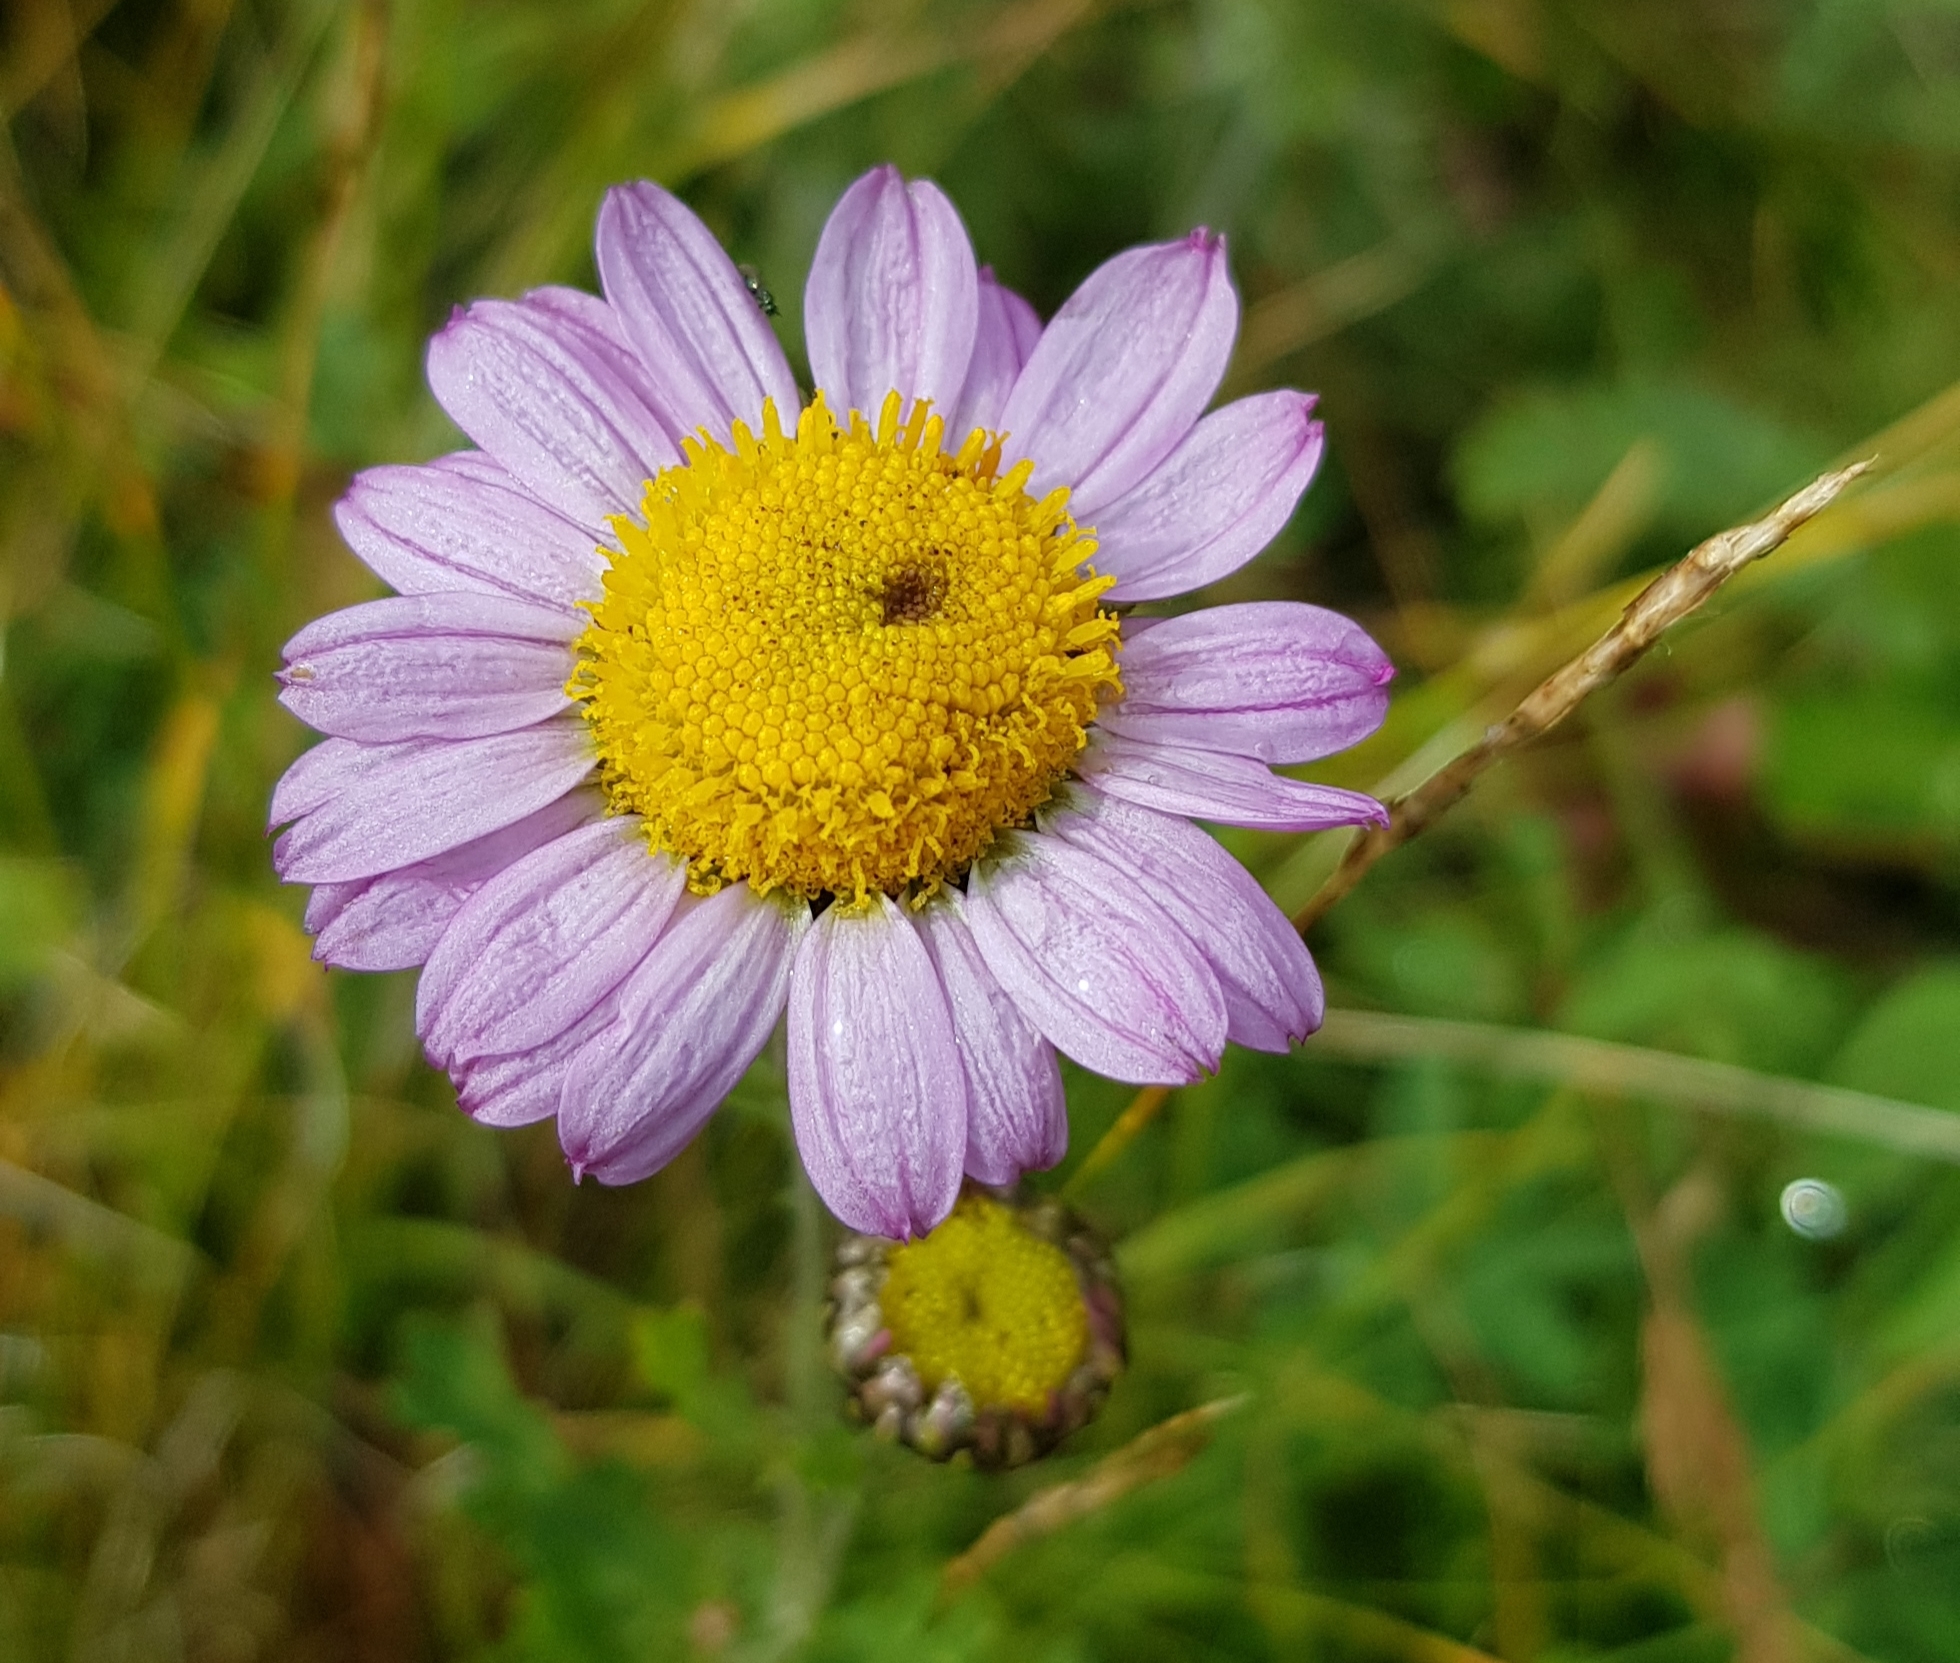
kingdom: Plantae
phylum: Tracheophyta
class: Magnoliopsida
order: Asterales
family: Asteraceae
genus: Chrysanthemum
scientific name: Chrysanthemum zawadzkii
